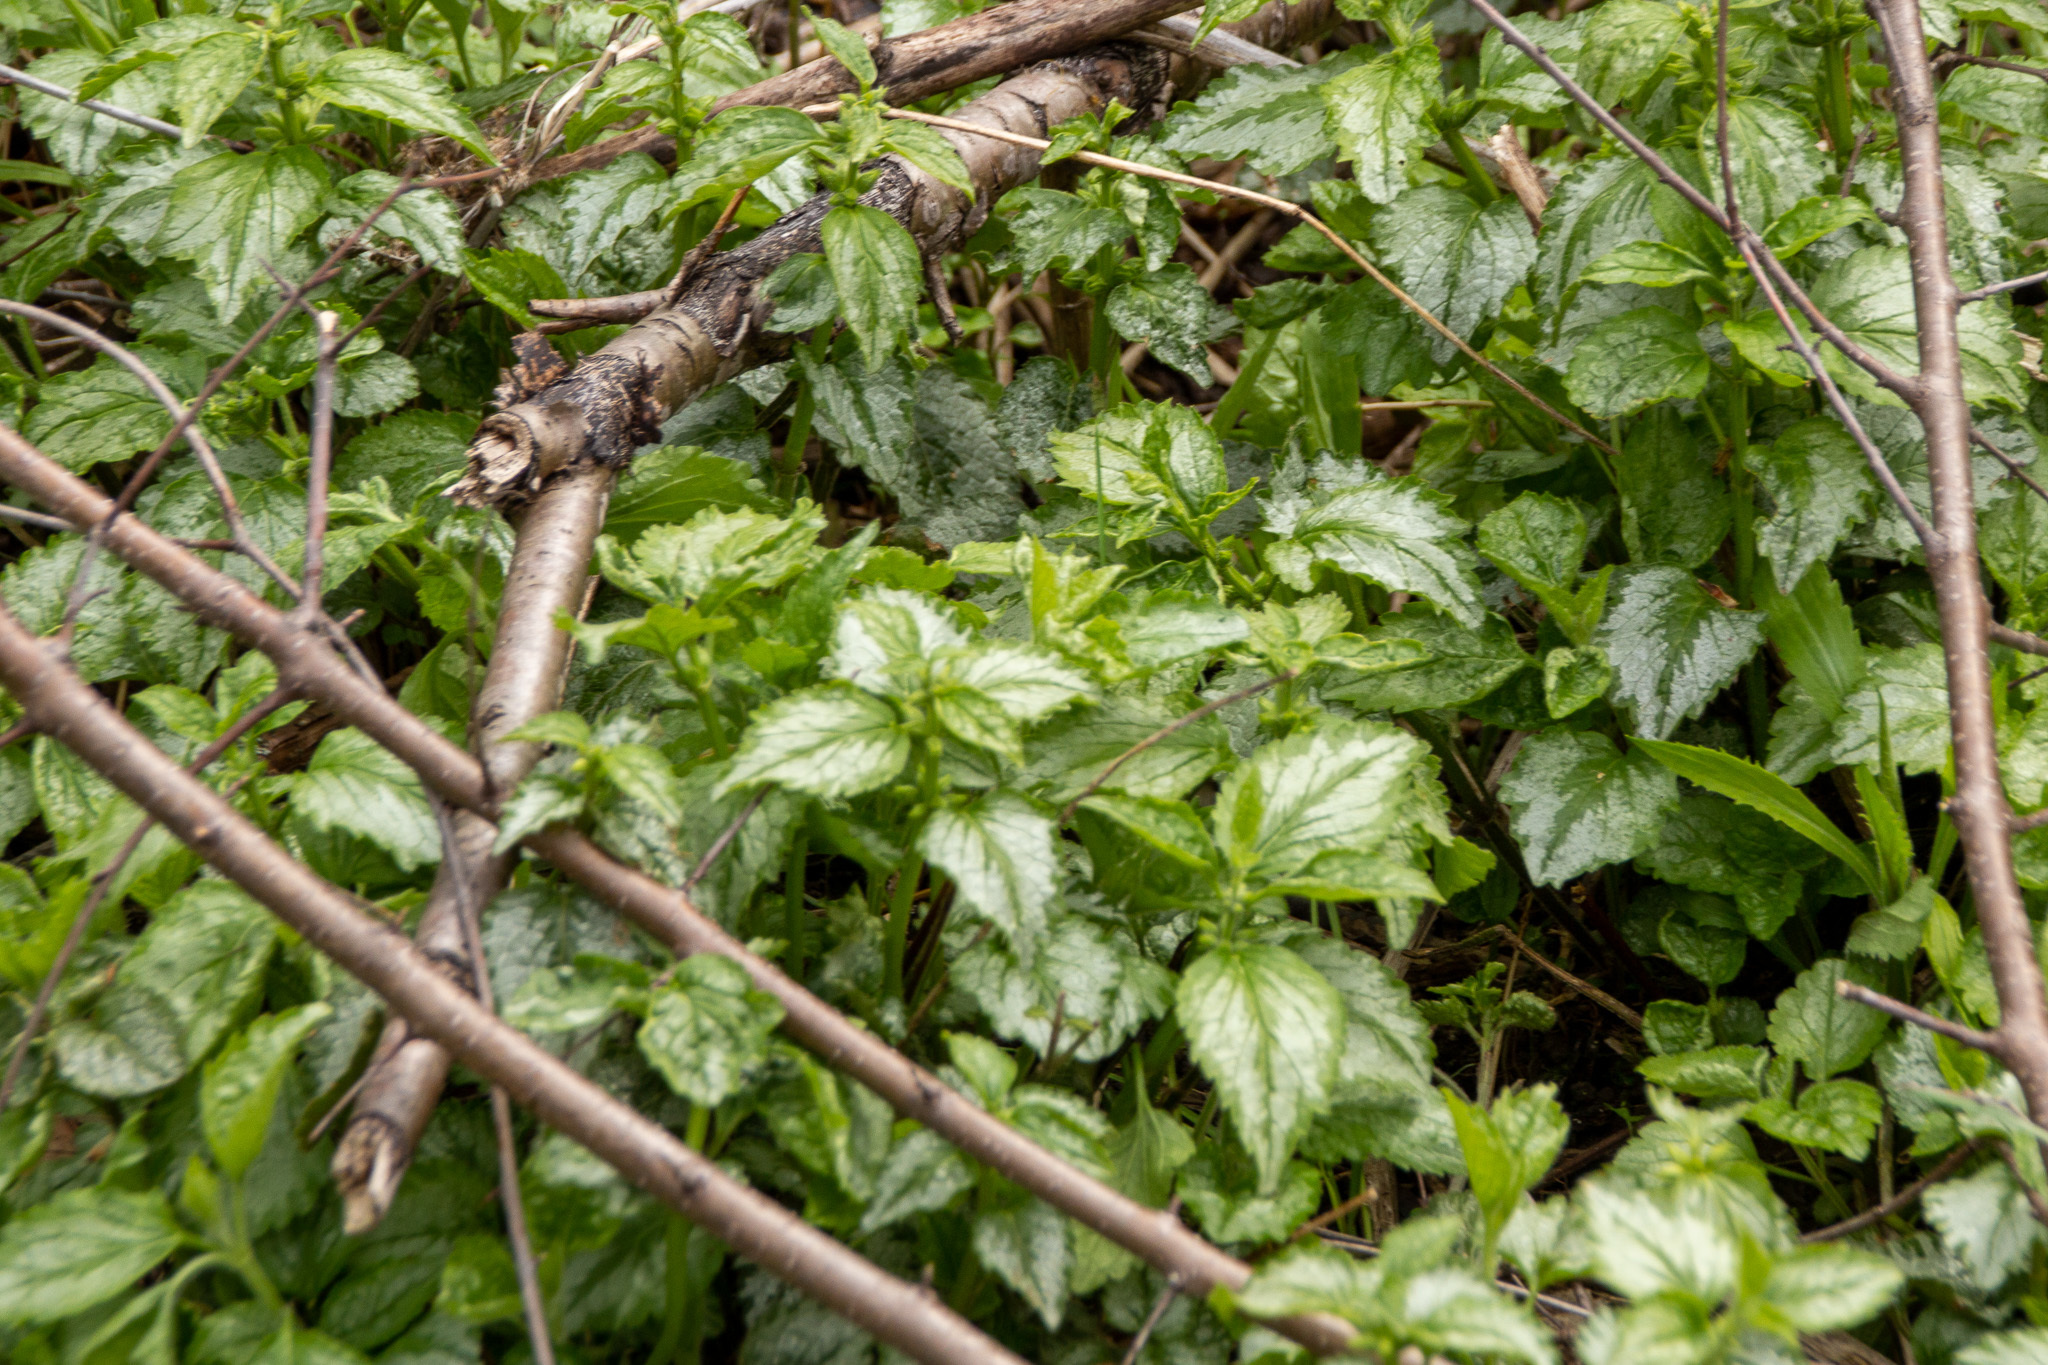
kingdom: Plantae
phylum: Tracheophyta
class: Magnoliopsida
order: Lamiales
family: Lamiaceae
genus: Lamium
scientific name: Lamium galeobdolon
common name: Yellow archangel
